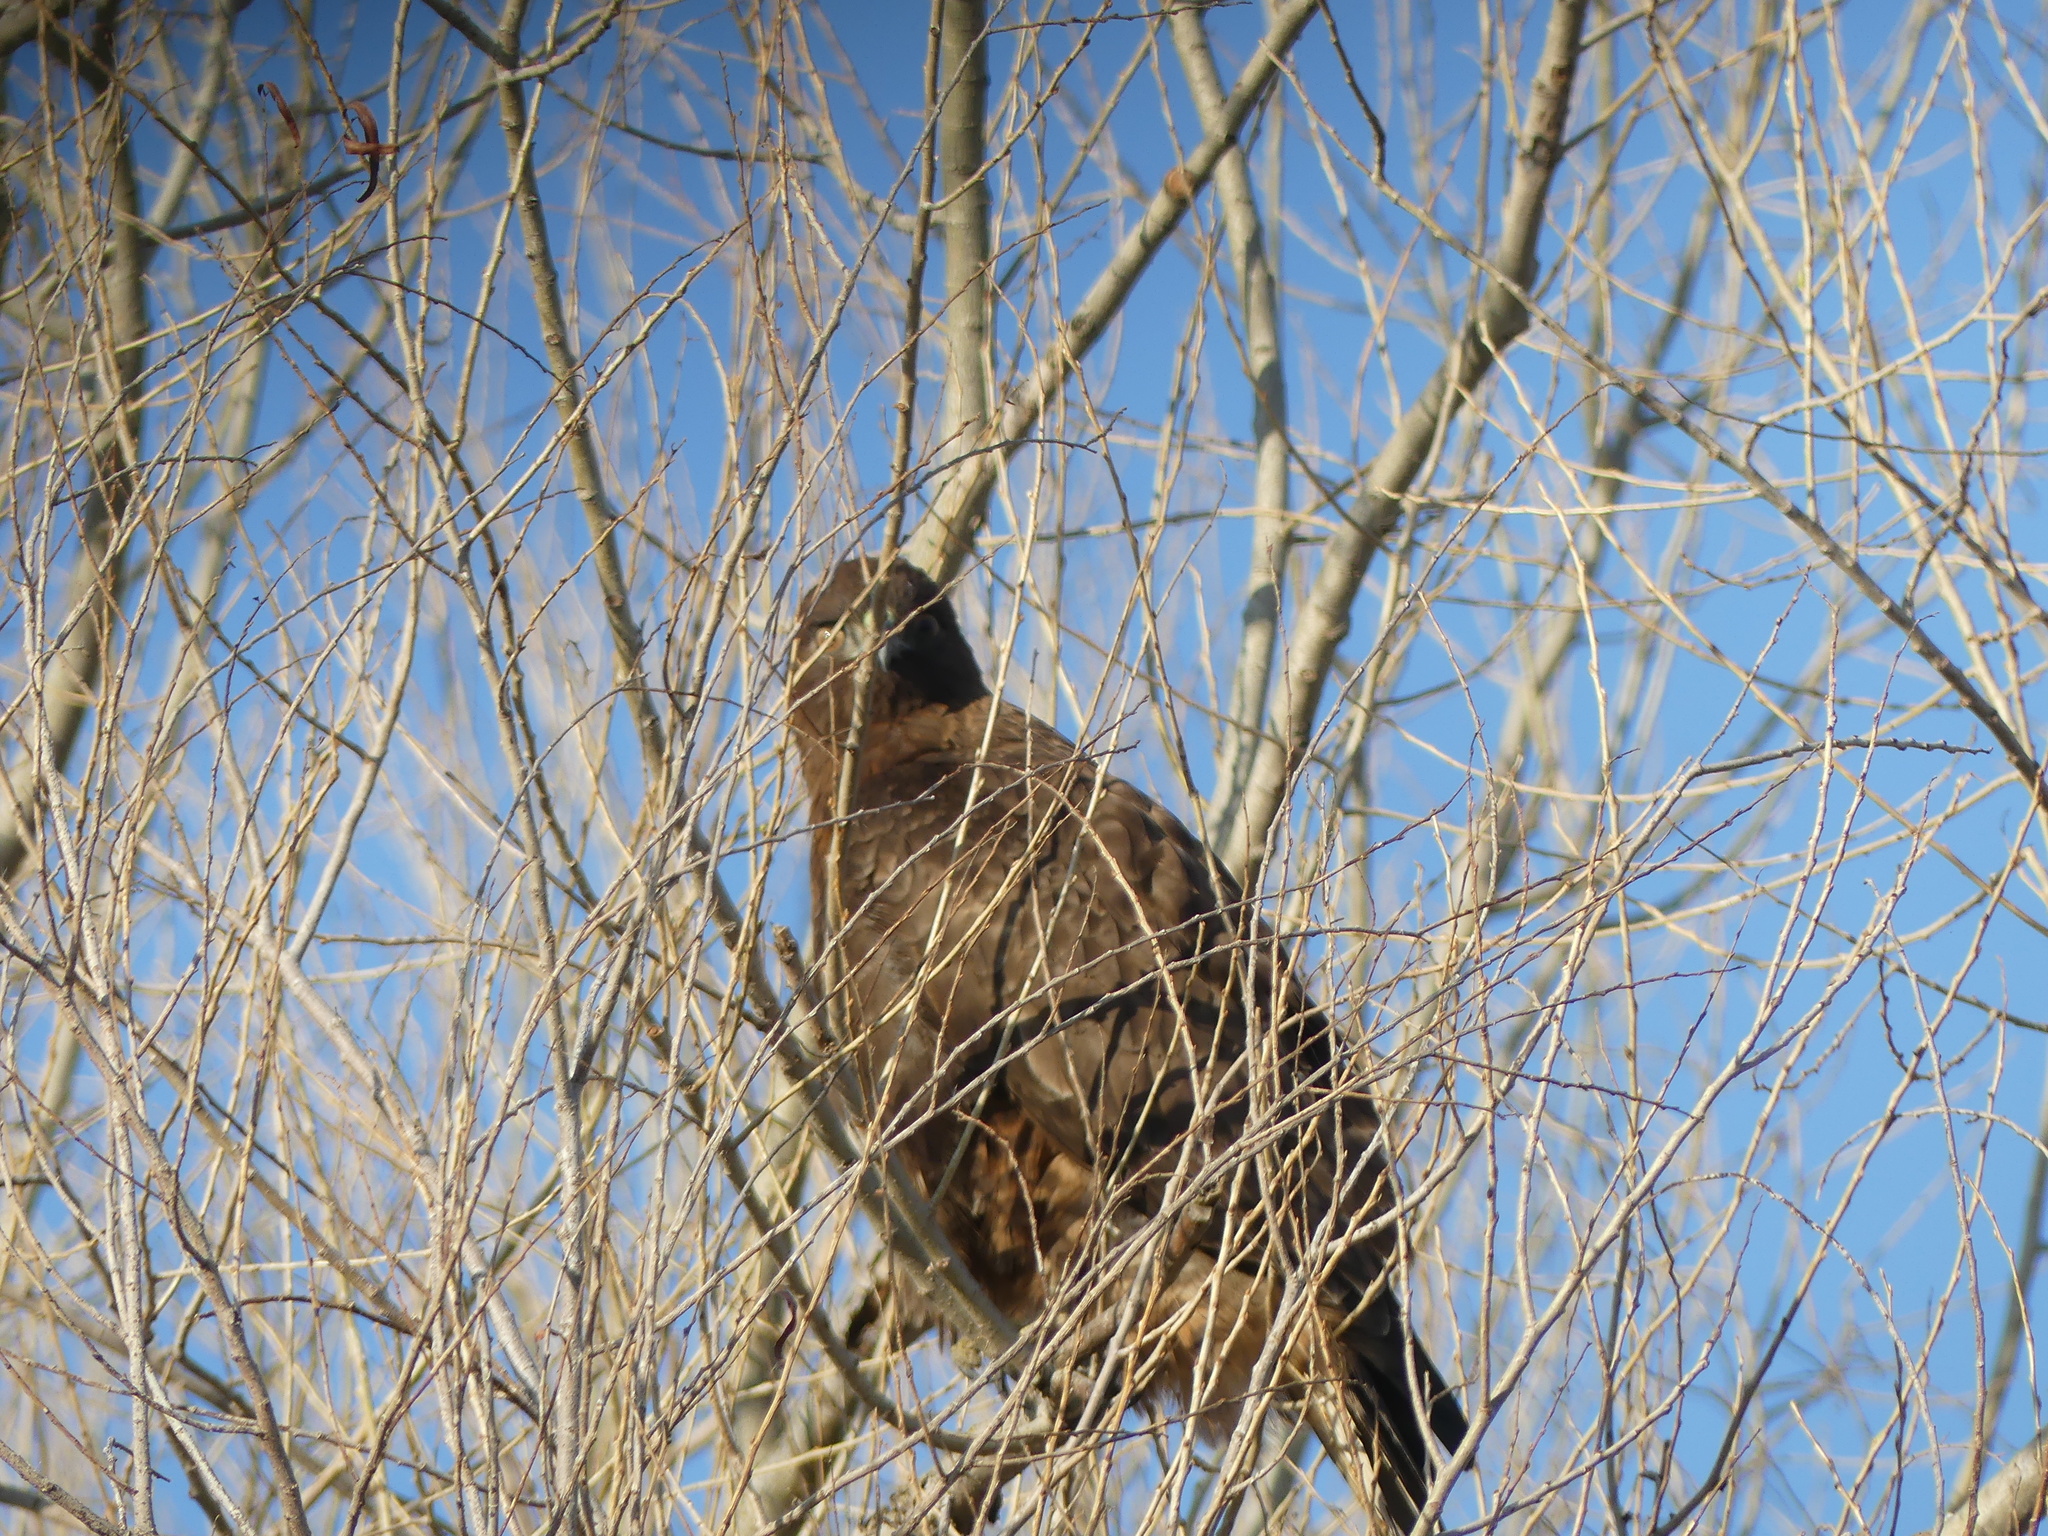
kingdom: Animalia
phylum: Chordata
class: Aves
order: Accipitriformes
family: Accipitridae
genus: Buteo
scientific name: Buteo jamaicensis
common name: Red-tailed hawk
